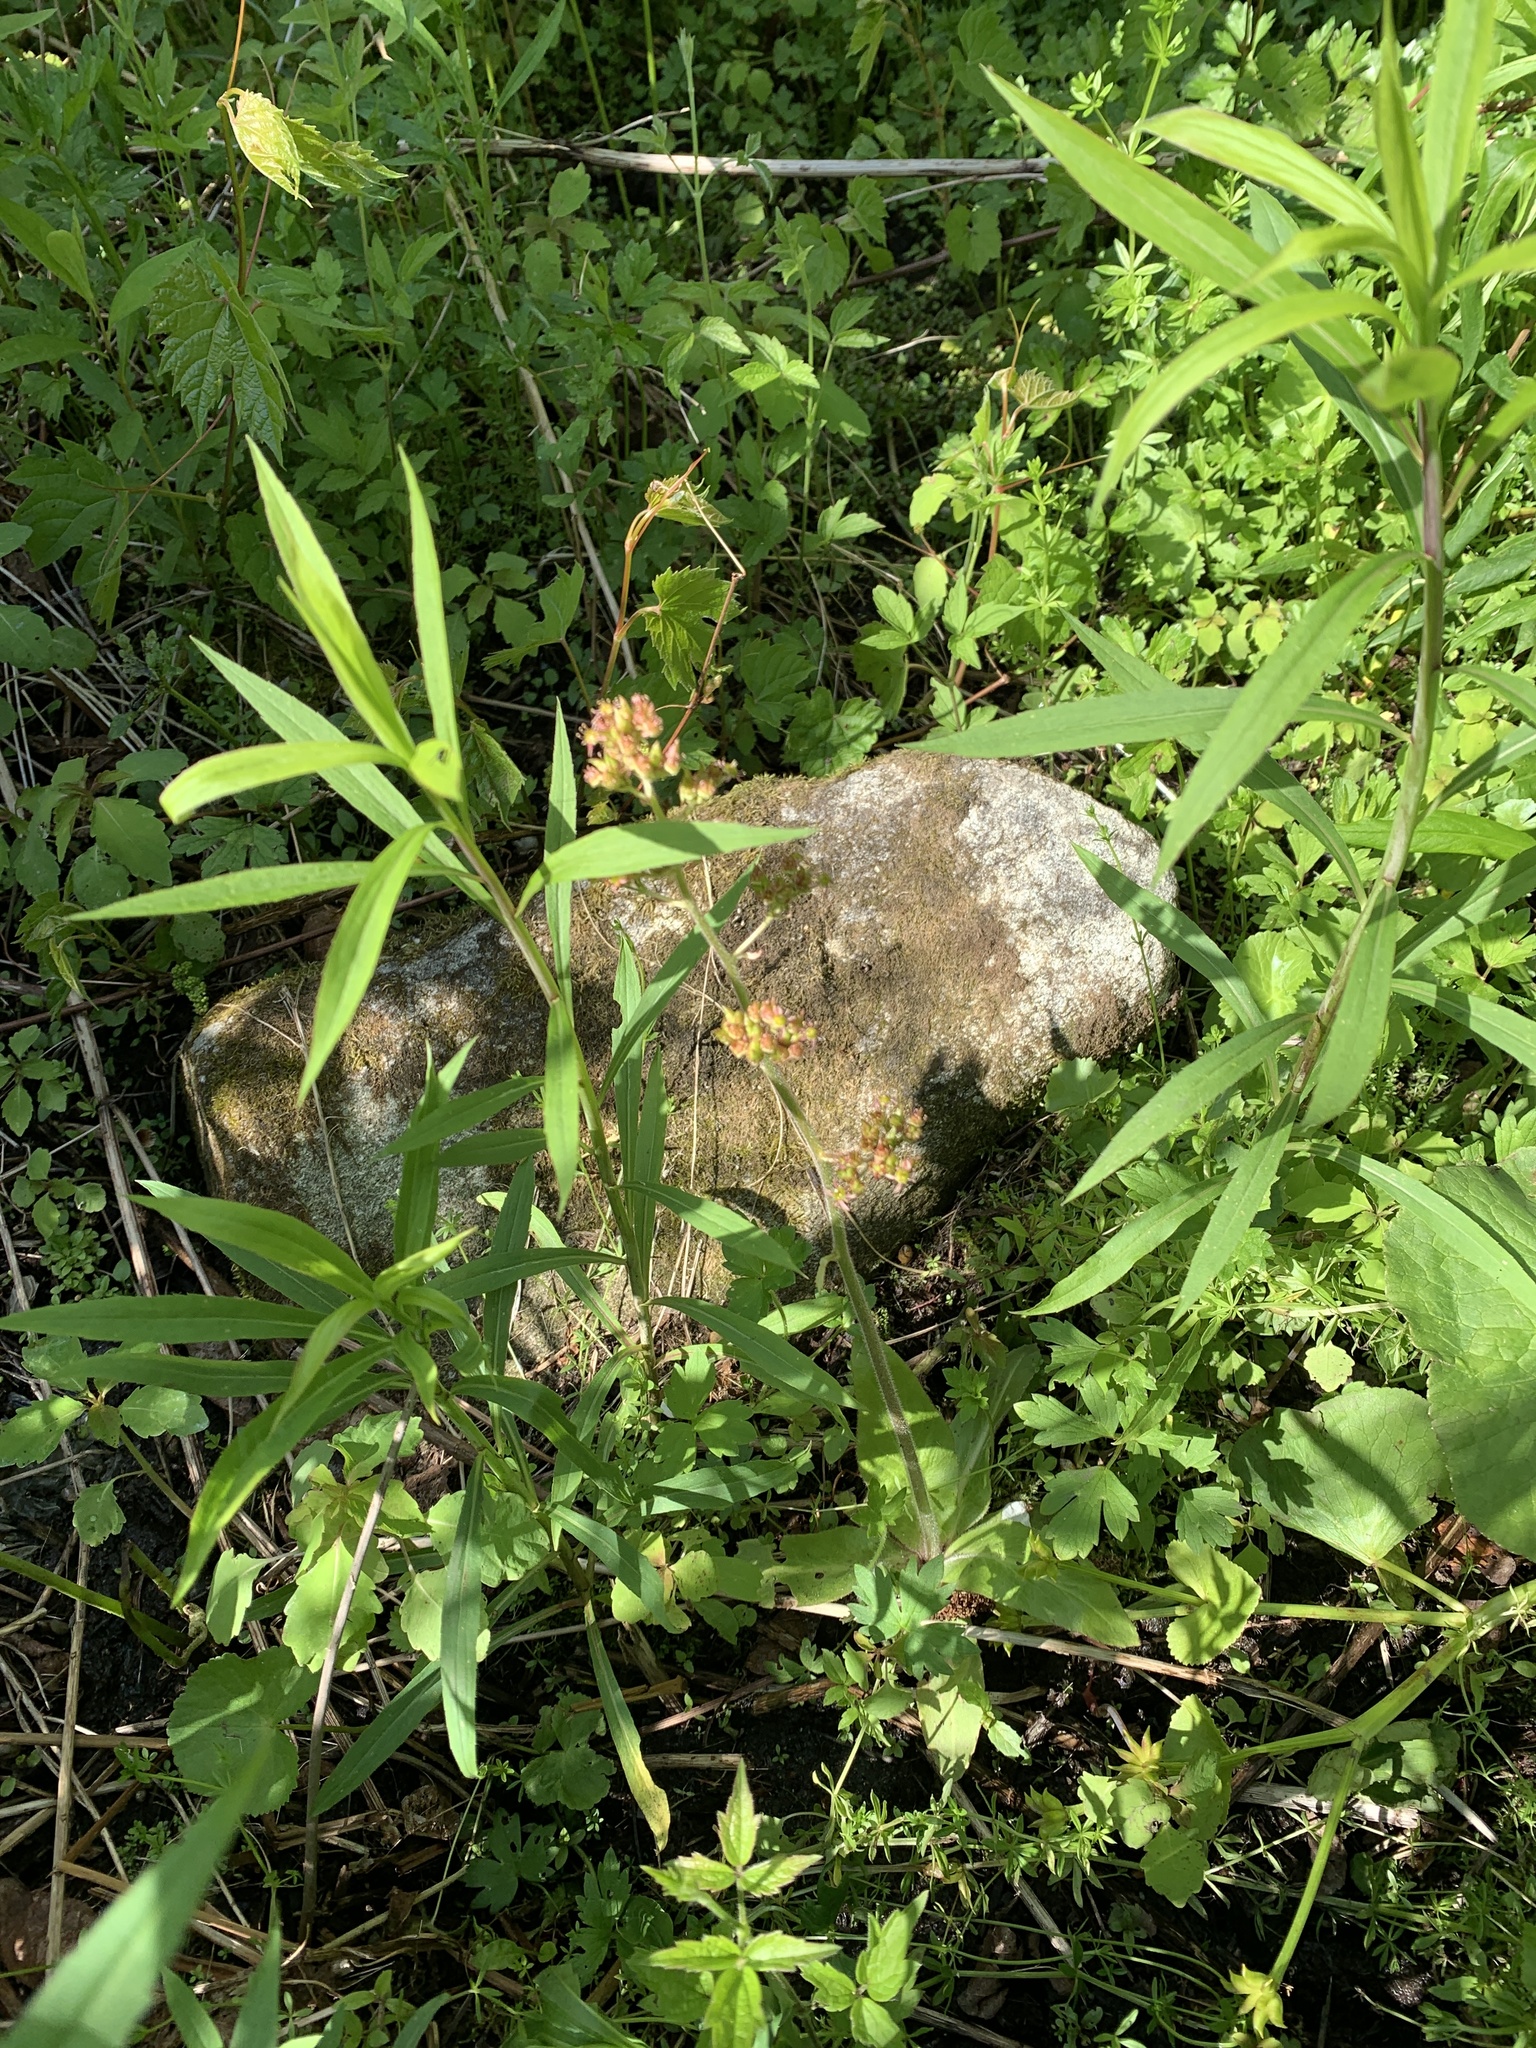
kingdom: Plantae
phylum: Tracheophyta
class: Magnoliopsida
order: Saxifragales
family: Saxifragaceae
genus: Micranthes
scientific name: Micranthes pensylvanica
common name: Marsh saxifrage
